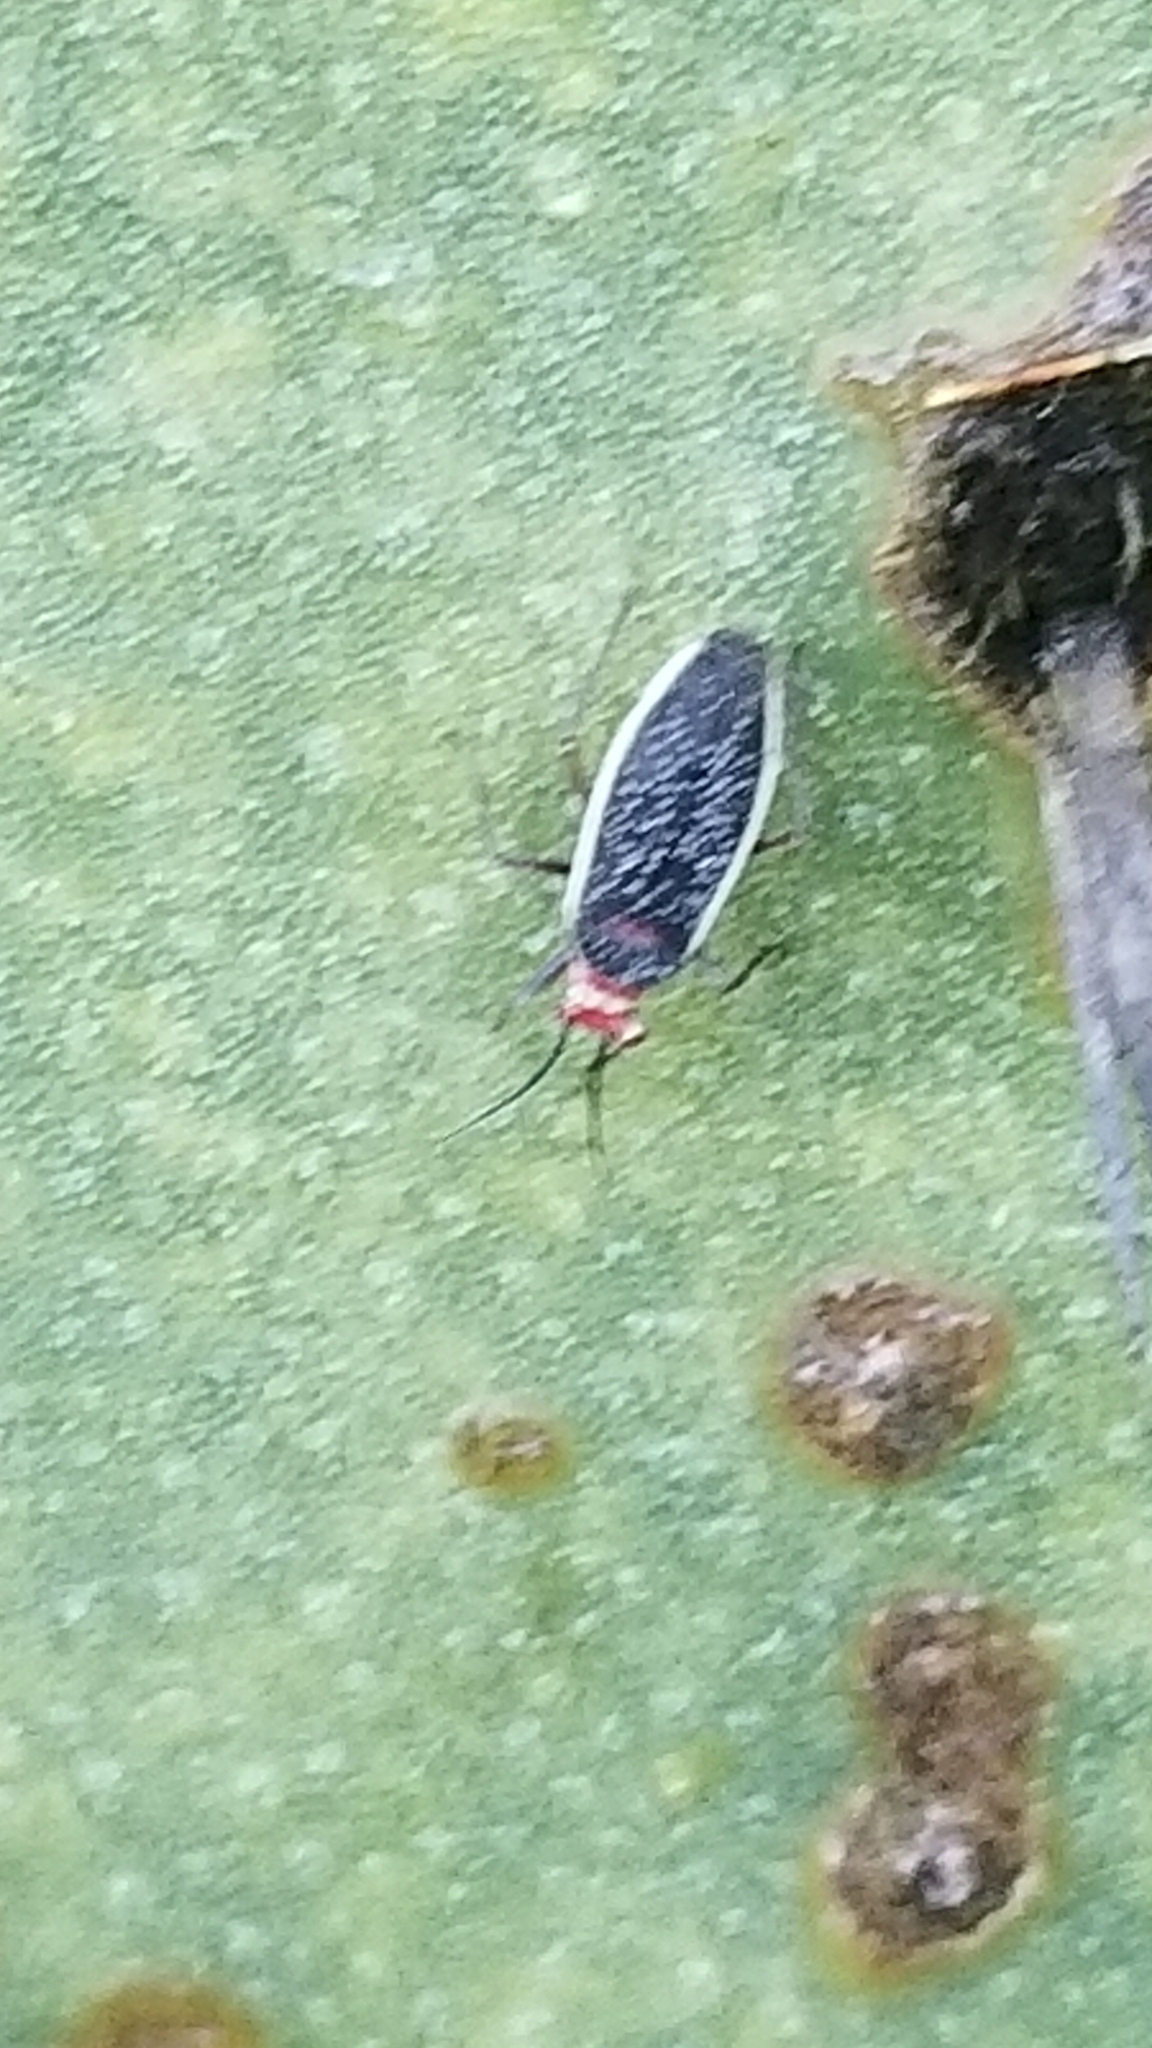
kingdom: Animalia
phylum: Arthropoda
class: Insecta
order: Hemiptera
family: Miridae
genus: Hesperolabops
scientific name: Hesperolabops gelastops
